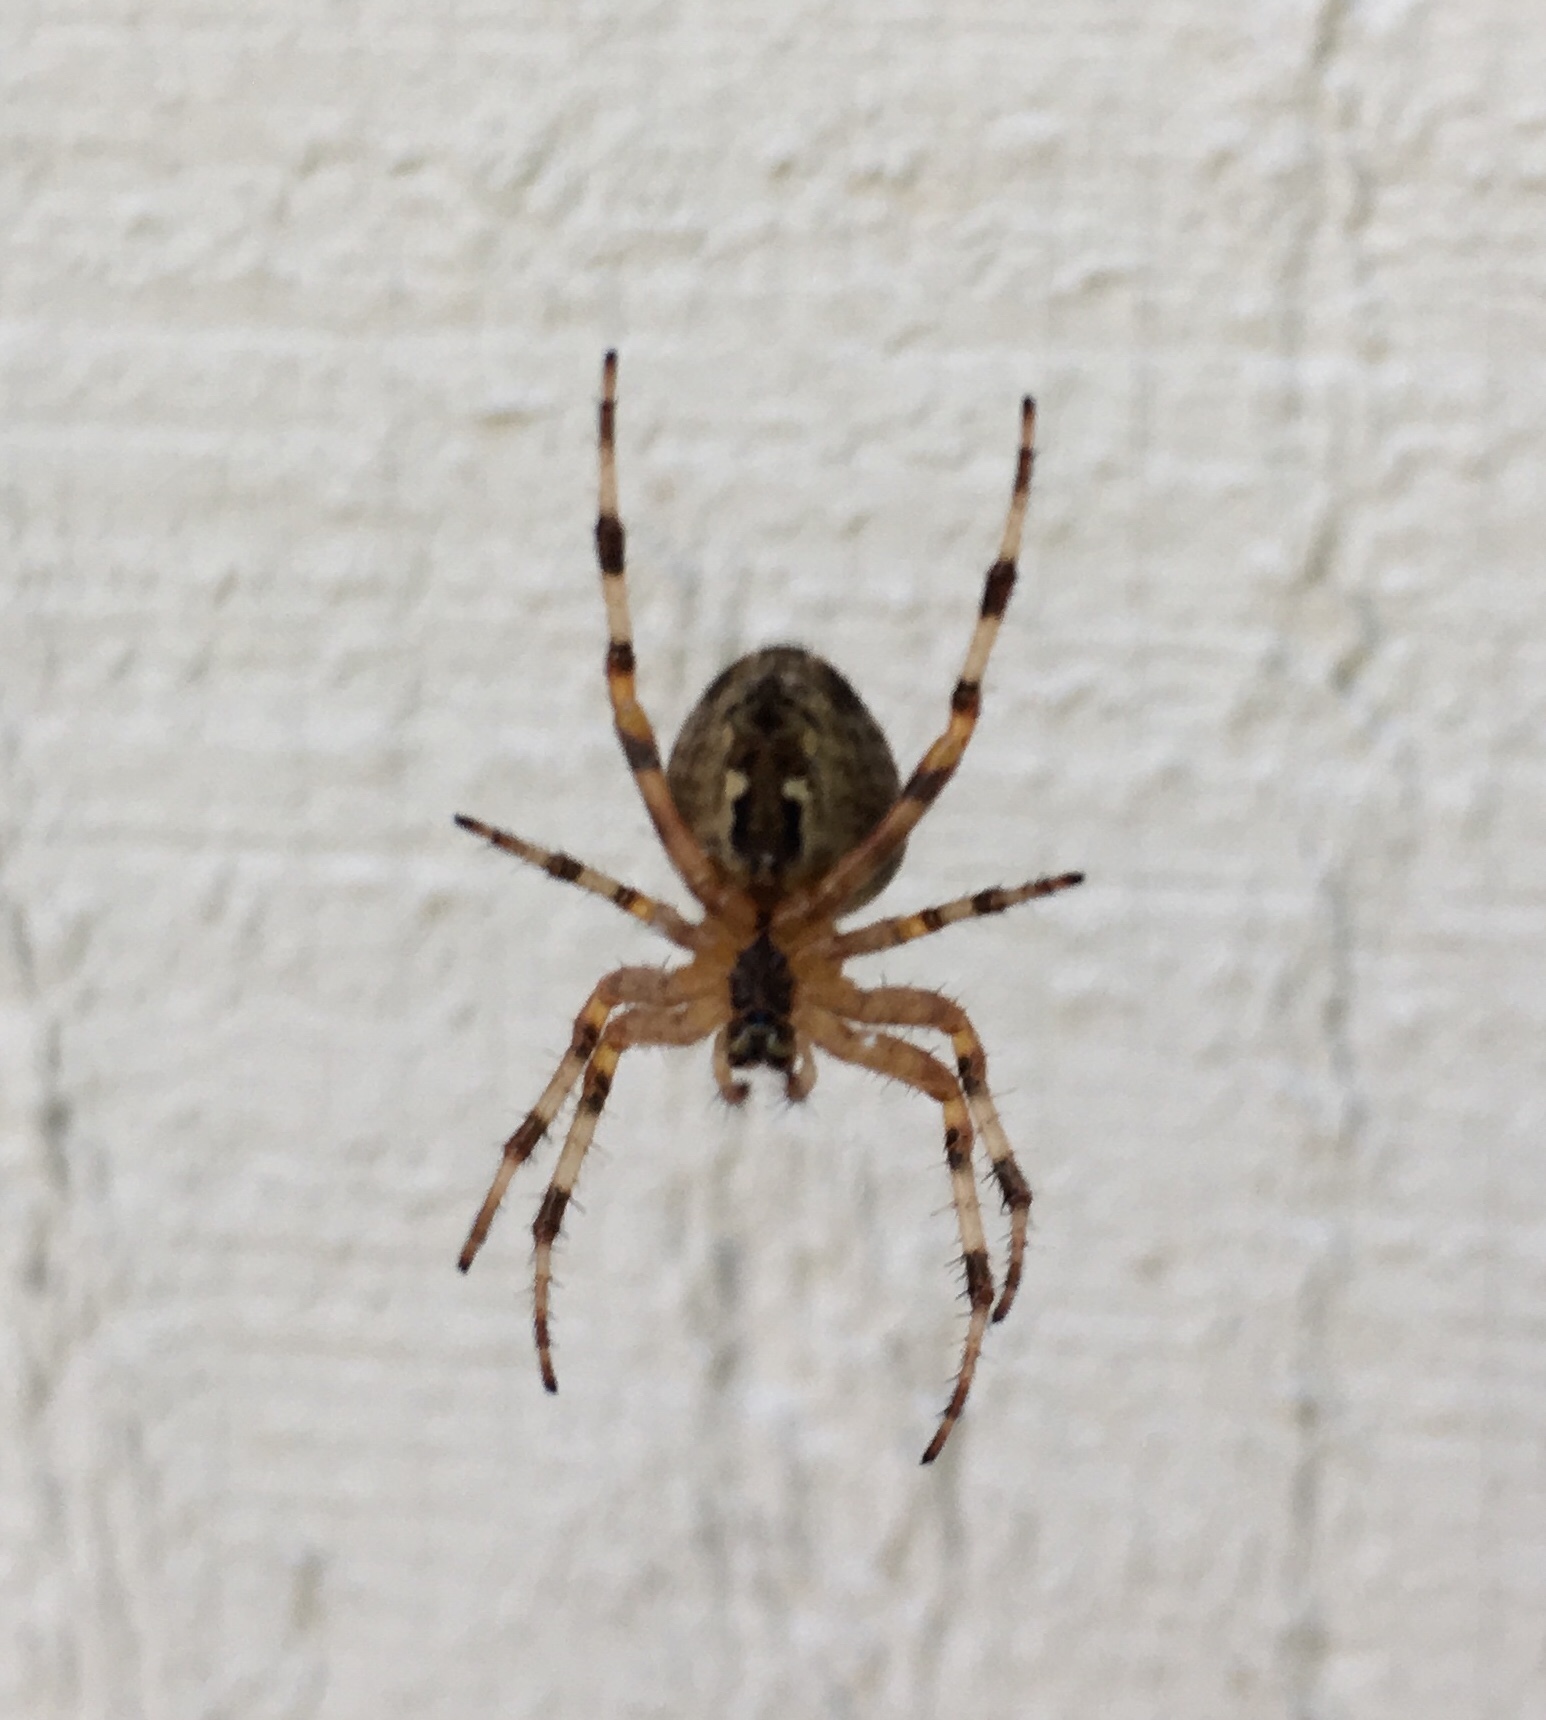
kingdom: Animalia
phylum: Arthropoda
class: Arachnida
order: Araneae
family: Araneidae
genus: Araneus
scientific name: Araneus diadematus
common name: Cross orbweaver
